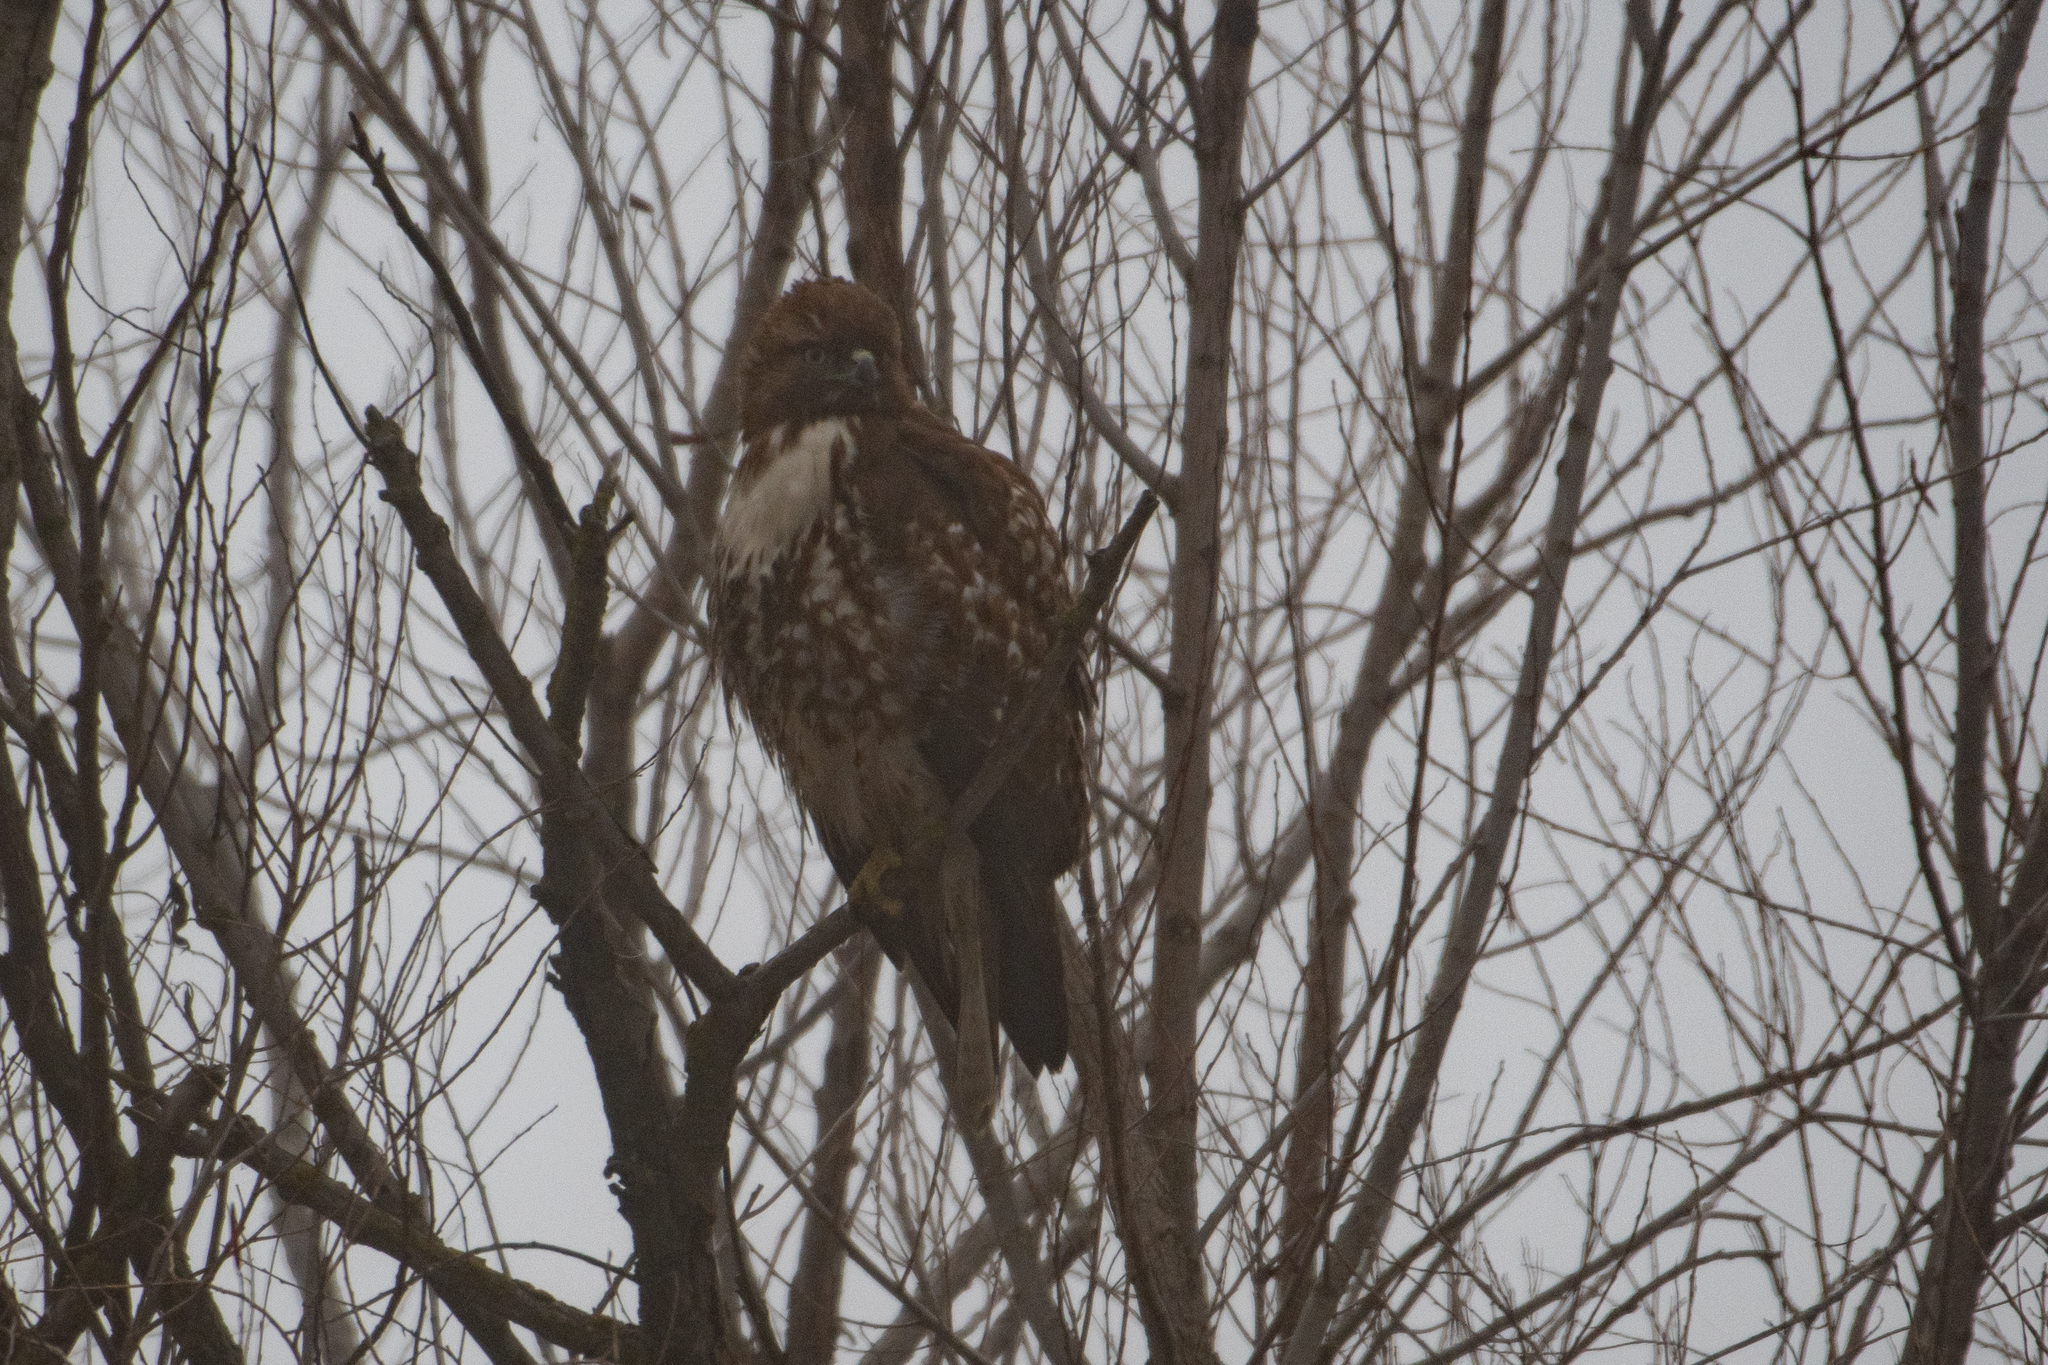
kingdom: Animalia
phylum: Chordata
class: Aves
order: Accipitriformes
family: Accipitridae
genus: Buteo
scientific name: Buteo jamaicensis
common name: Red-tailed hawk
